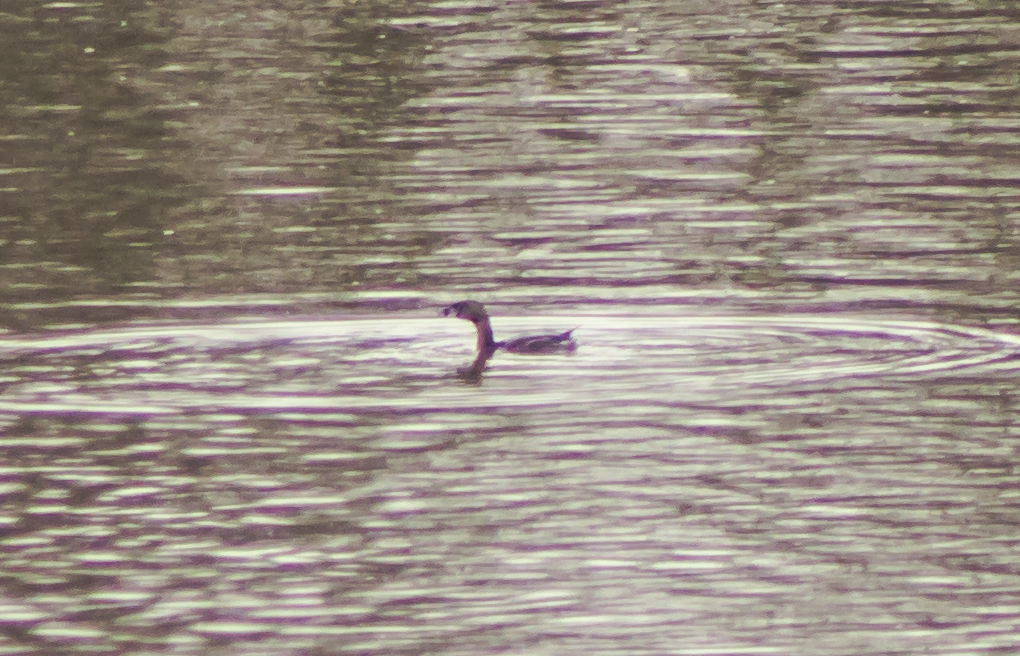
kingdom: Animalia
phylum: Chordata
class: Aves
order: Podicipediformes
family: Podicipedidae
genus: Podilymbus
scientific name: Podilymbus podiceps
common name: Pied-billed grebe
